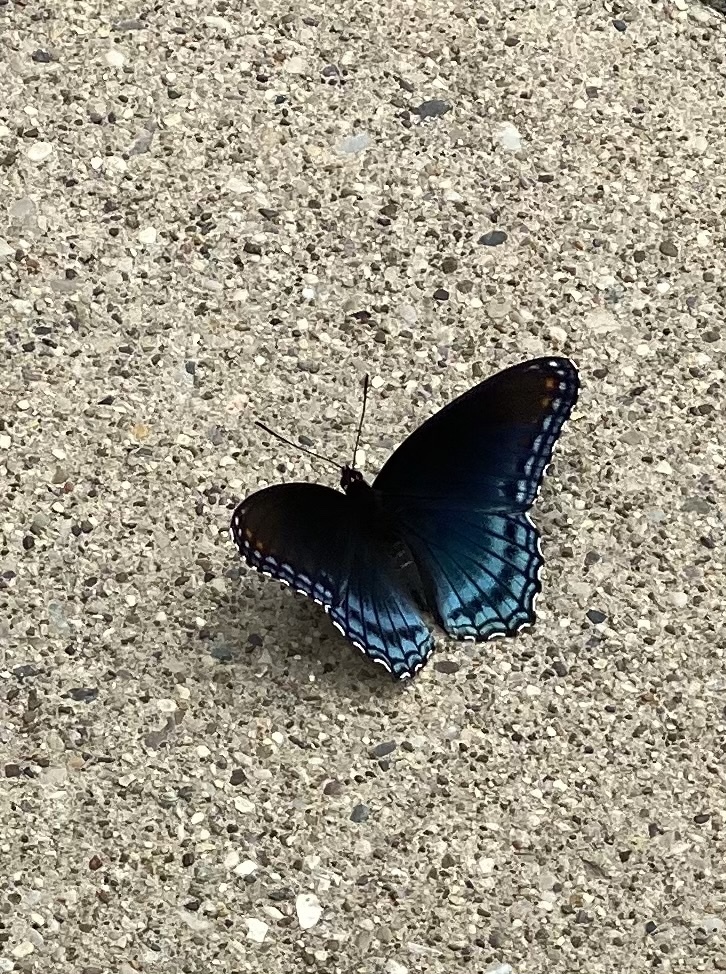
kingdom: Animalia
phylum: Arthropoda
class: Insecta
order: Lepidoptera
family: Nymphalidae
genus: Limenitis
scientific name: Limenitis astyanax
